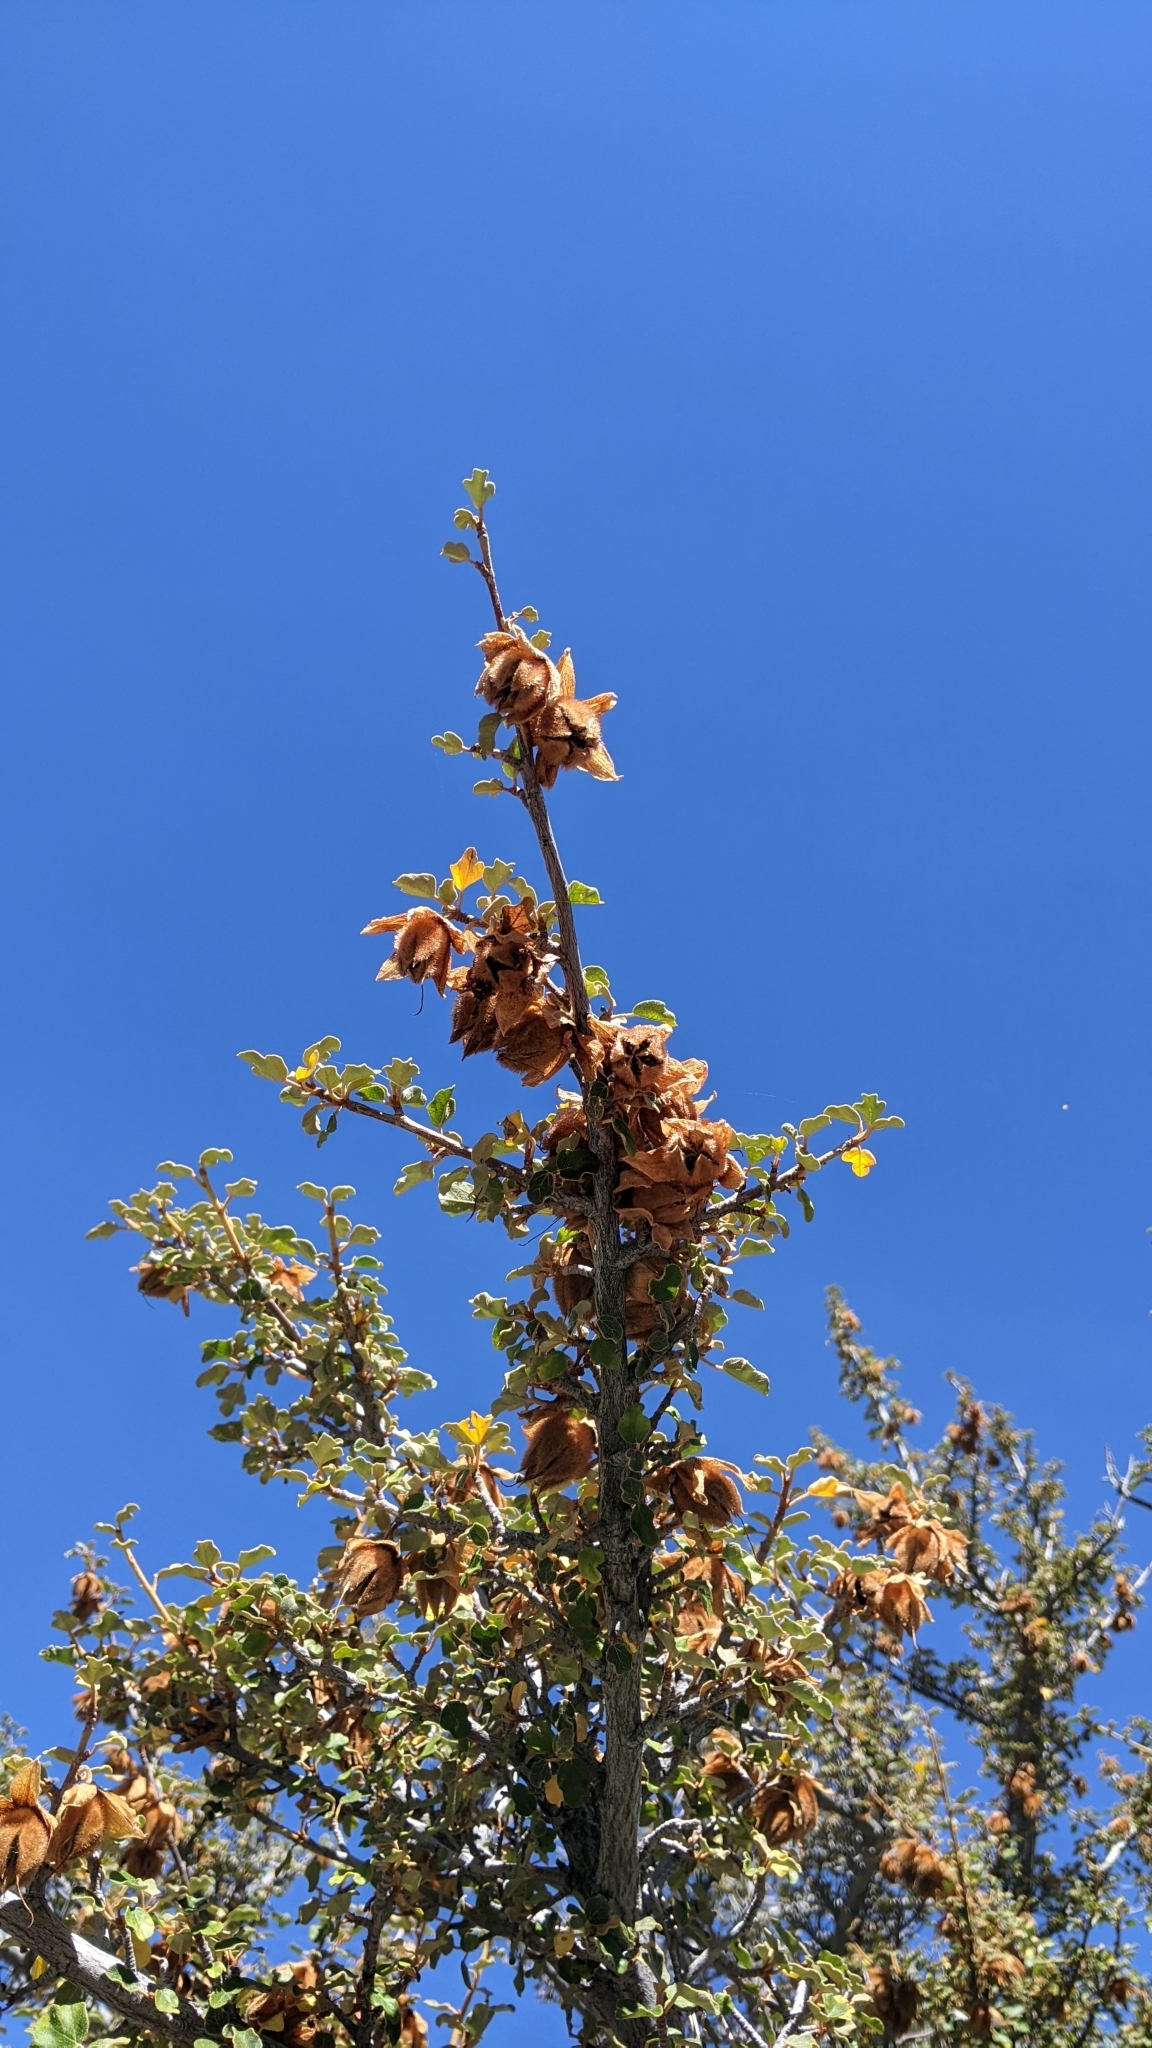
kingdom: Plantae
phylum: Tracheophyta
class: Magnoliopsida
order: Malvales
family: Malvaceae
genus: Fremontodendron
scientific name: Fremontodendron californicum
